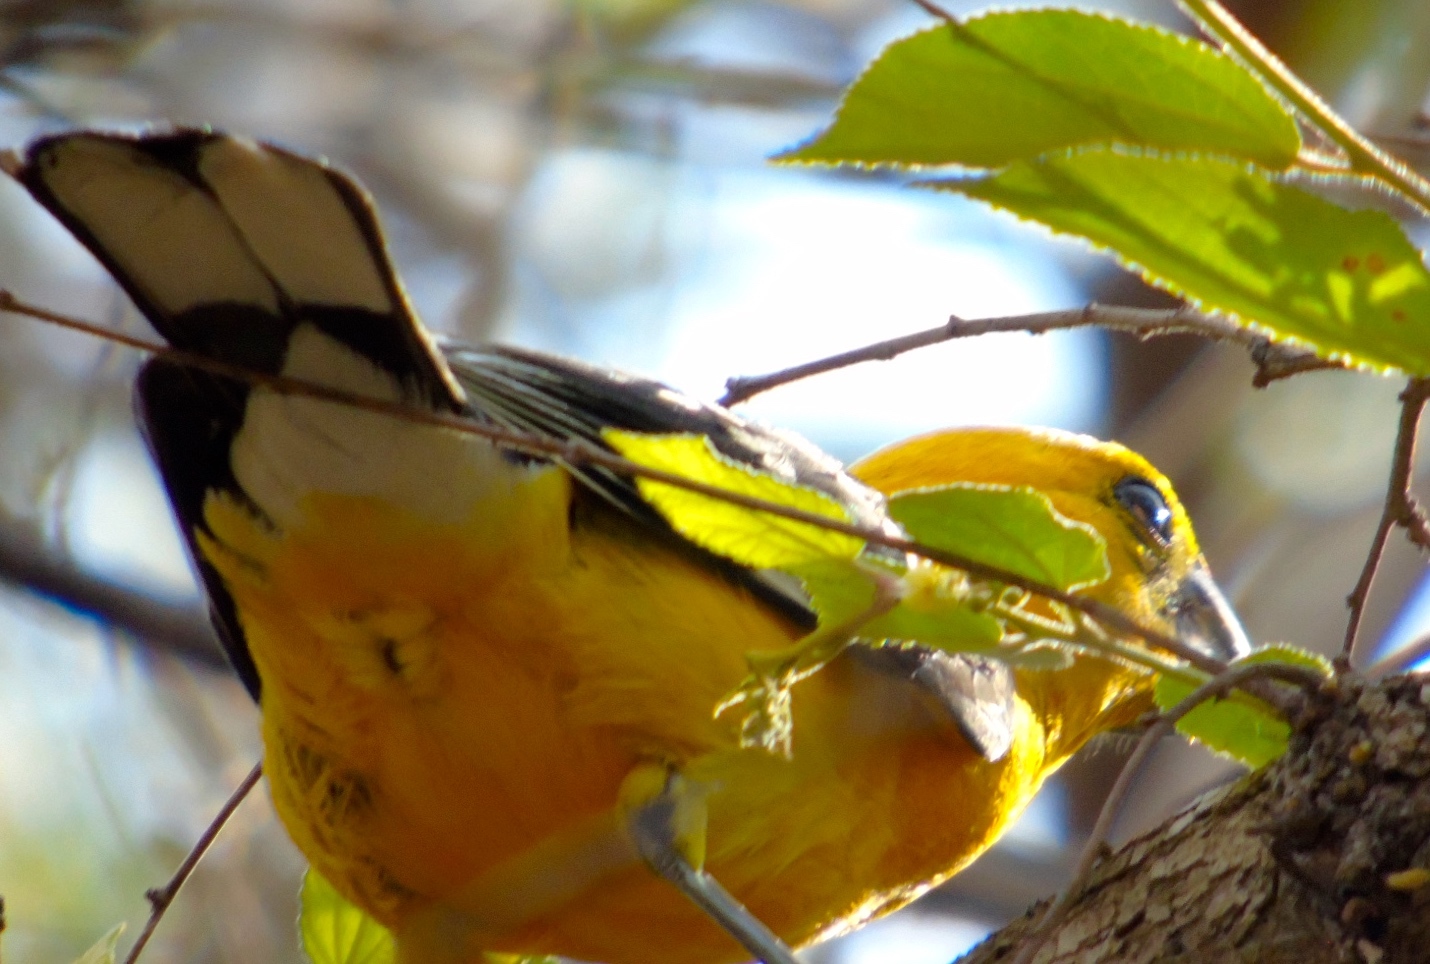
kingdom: Animalia
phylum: Chordata
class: Aves
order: Passeriformes
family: Cardinalidae
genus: Pheucticus
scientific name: Pheucticus chrysopeplus
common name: Yellow grosbeak
